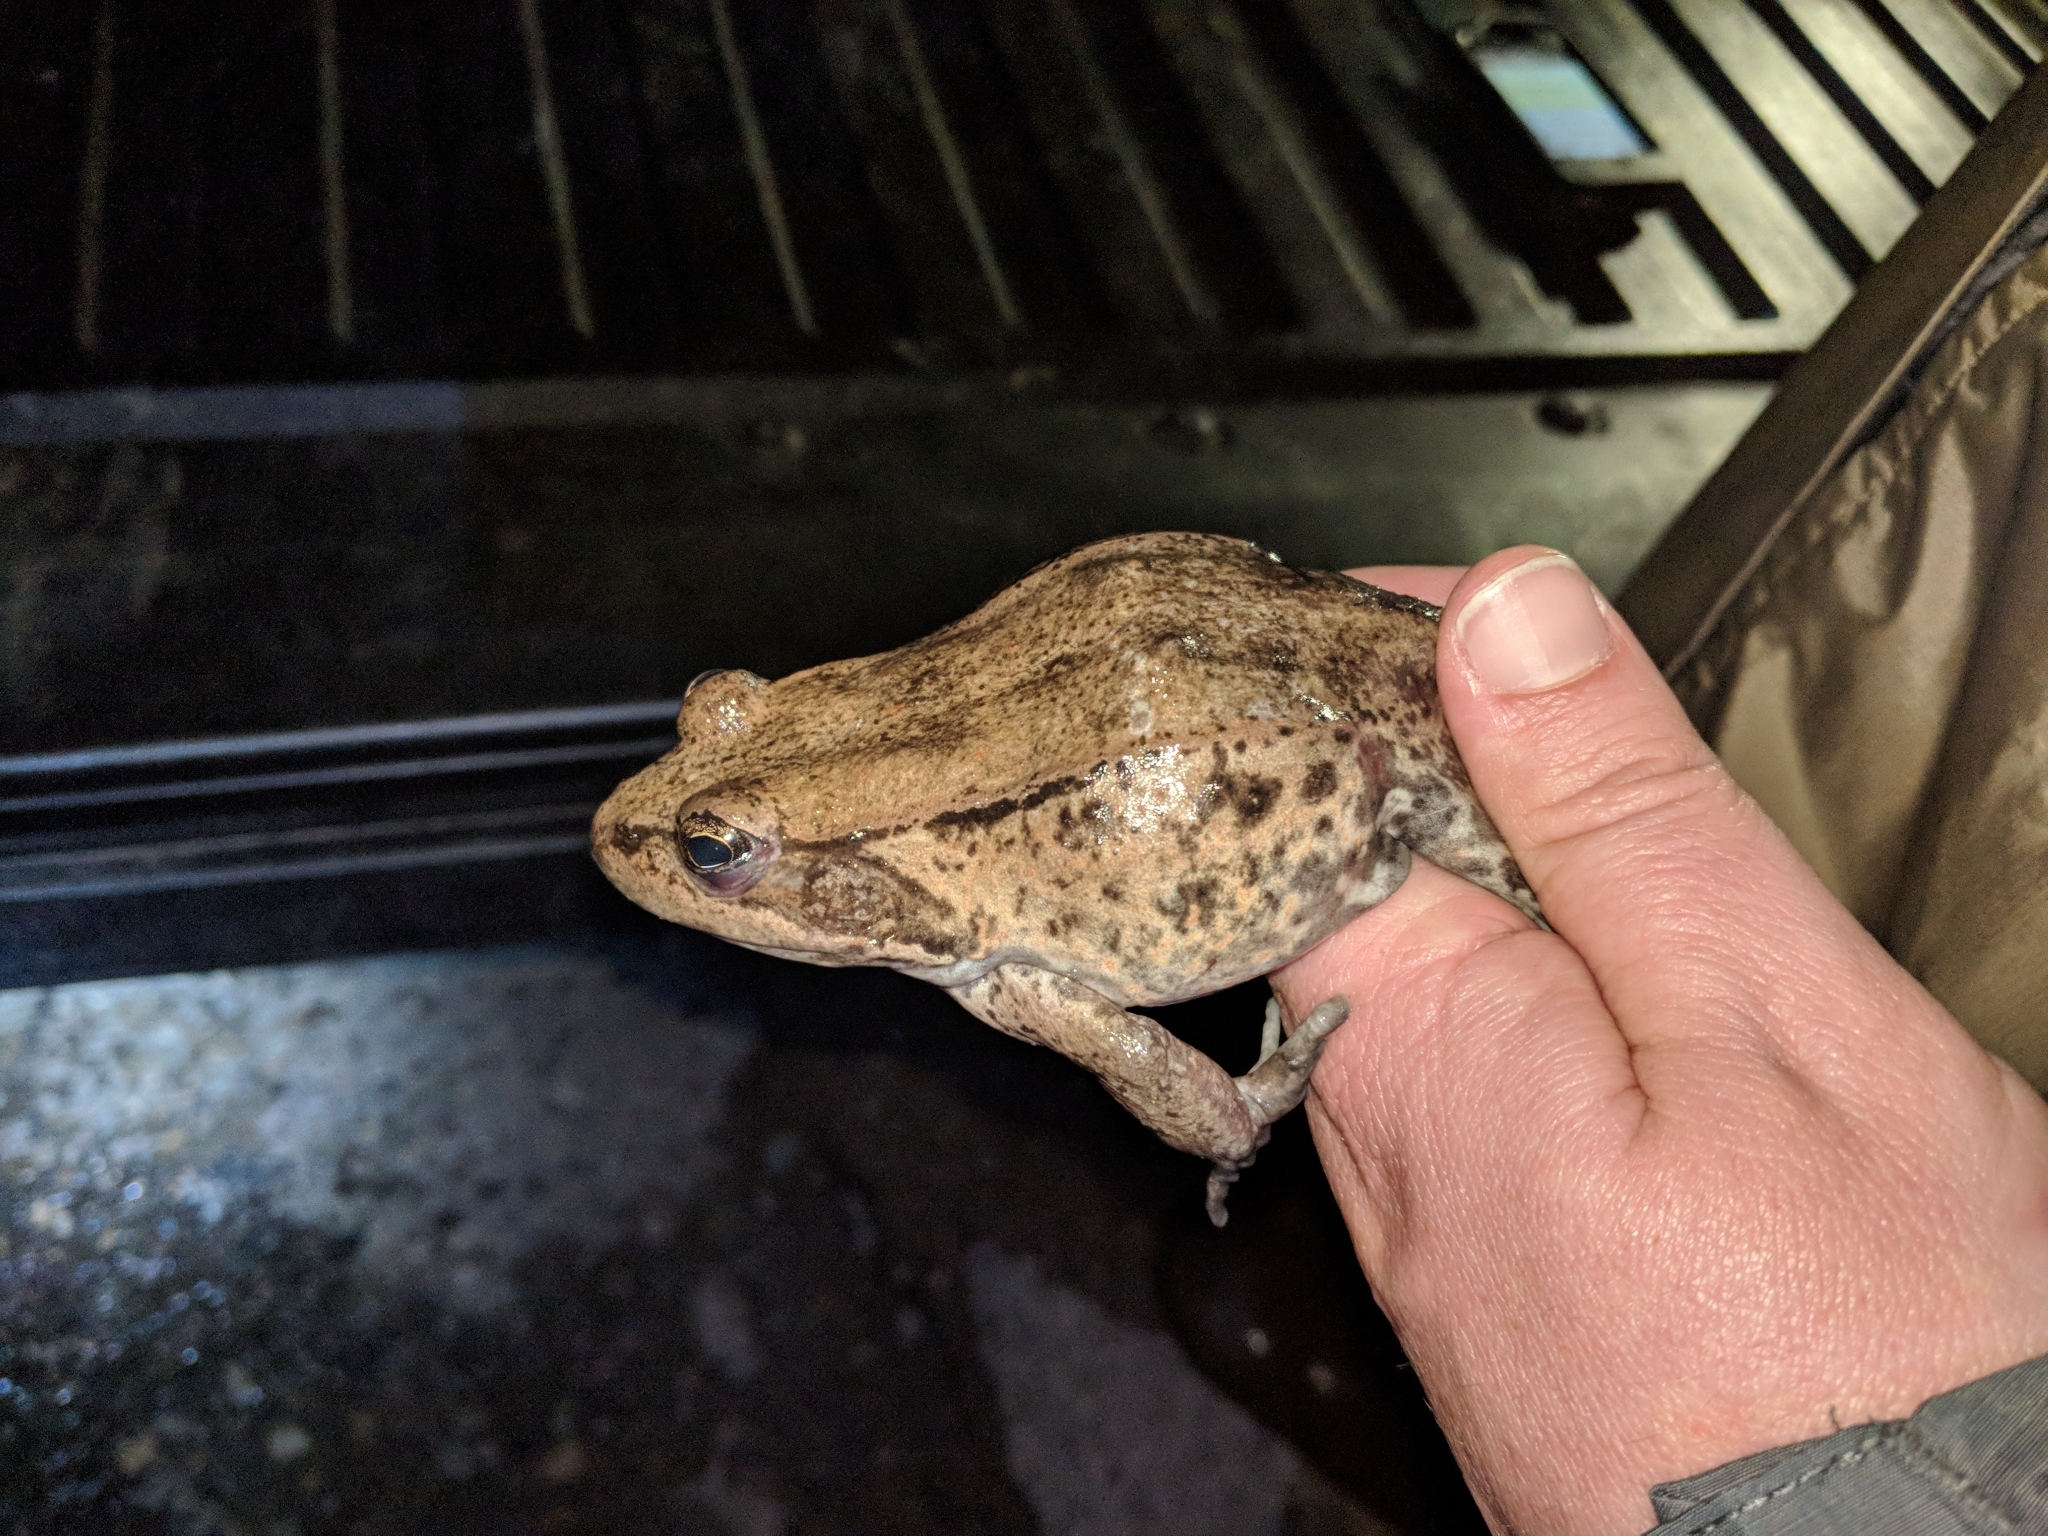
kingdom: Animalia
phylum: Chordata
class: Amphibia
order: Anura
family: Ranidae
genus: Rana
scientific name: Rana draytonii
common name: California red-legged frog
